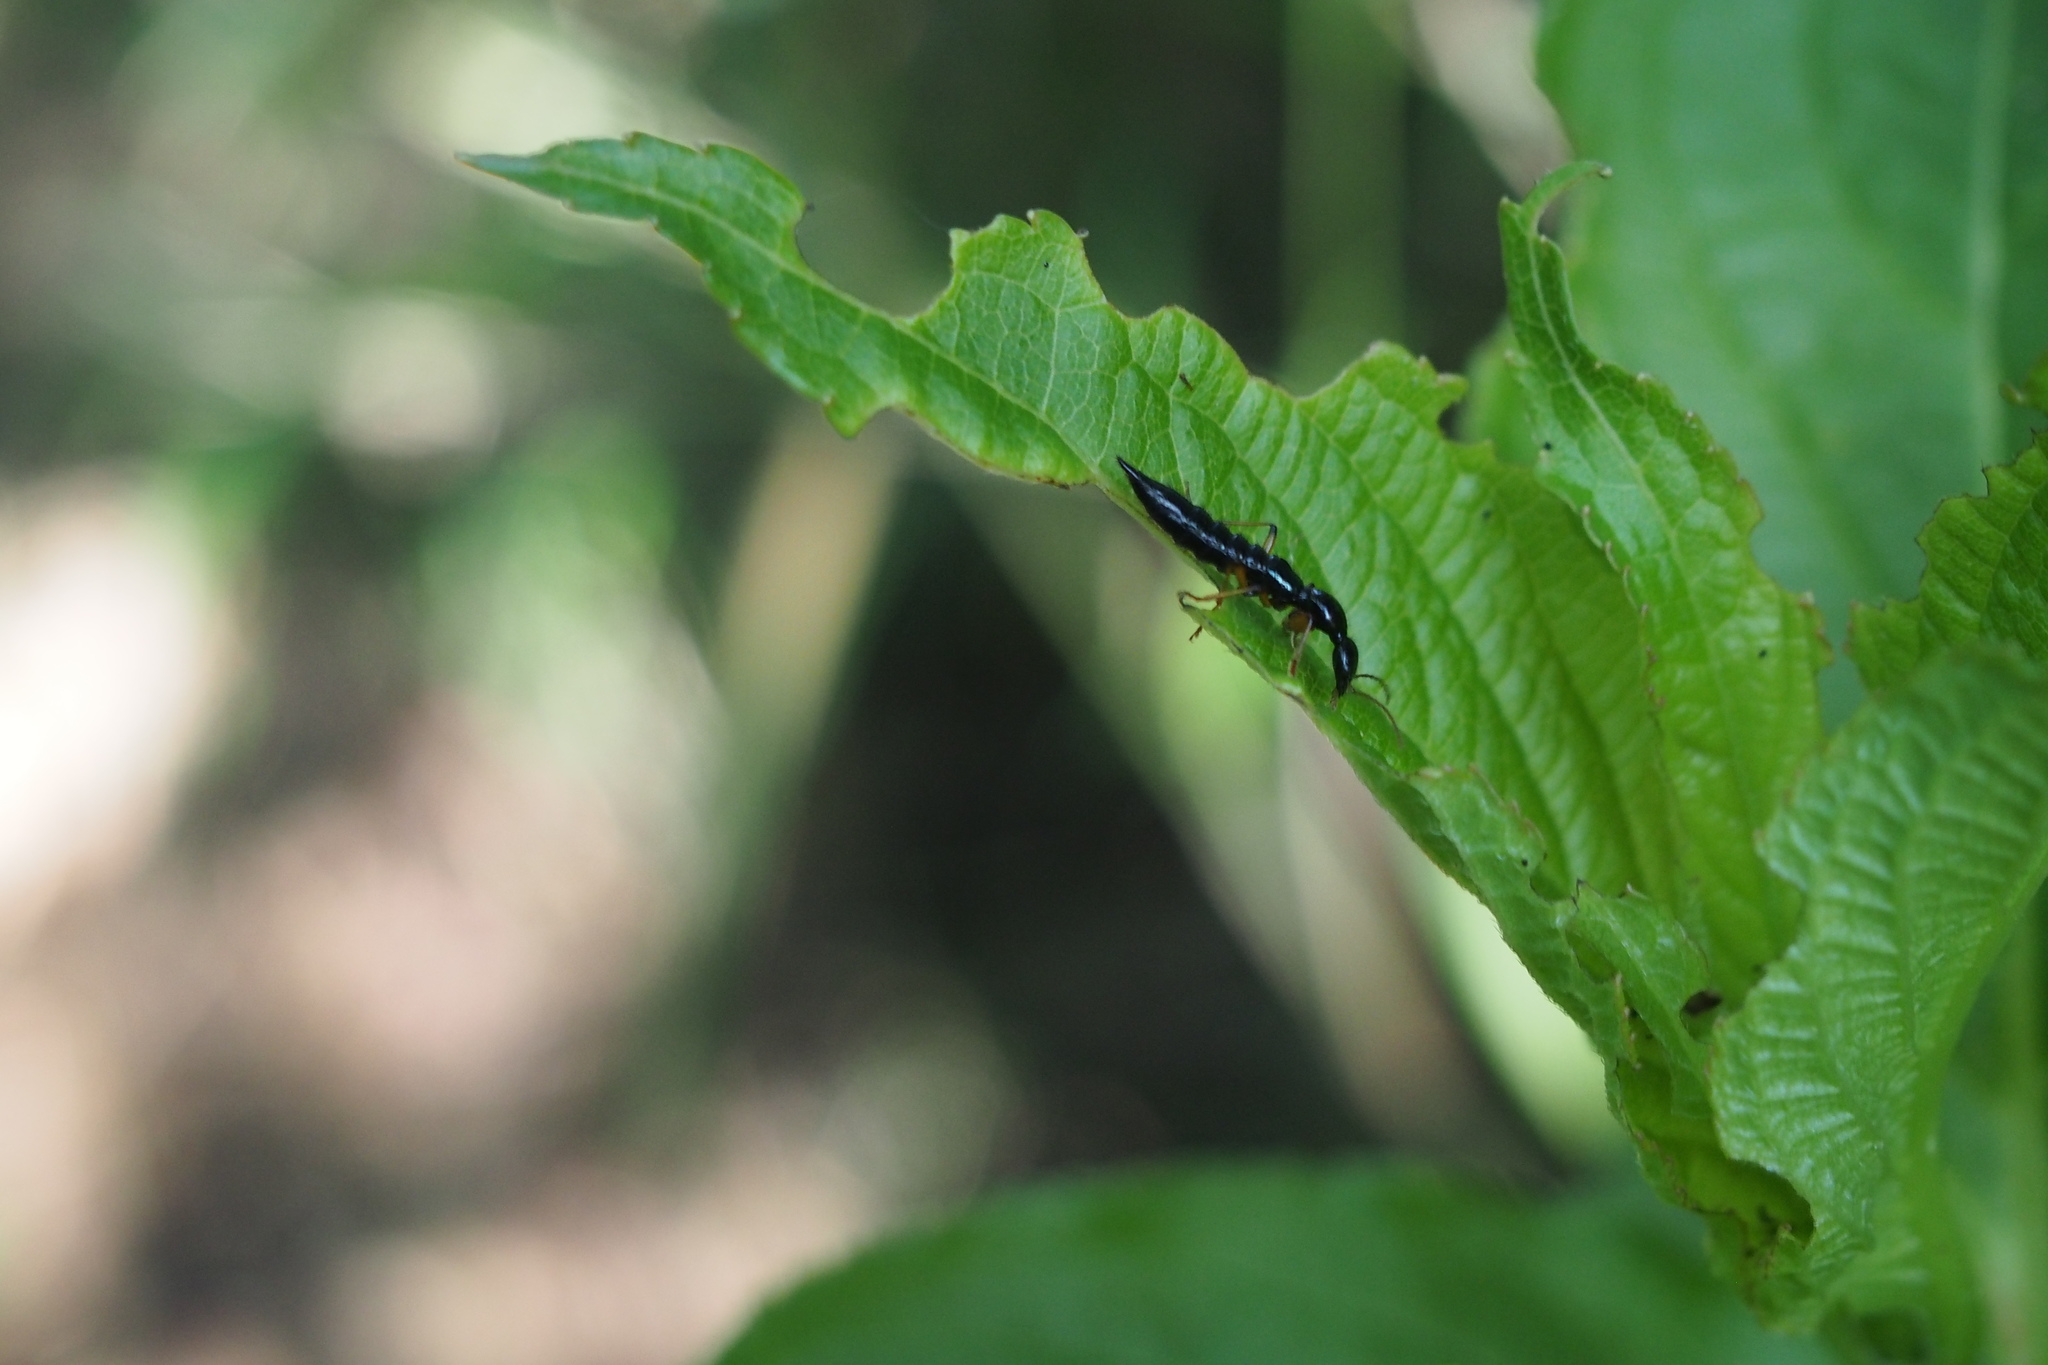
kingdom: Animalia
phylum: Arthropoda
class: Insecta
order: Coleoptera
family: Staphylinidae
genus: Paederus
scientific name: Paederus lewisi
